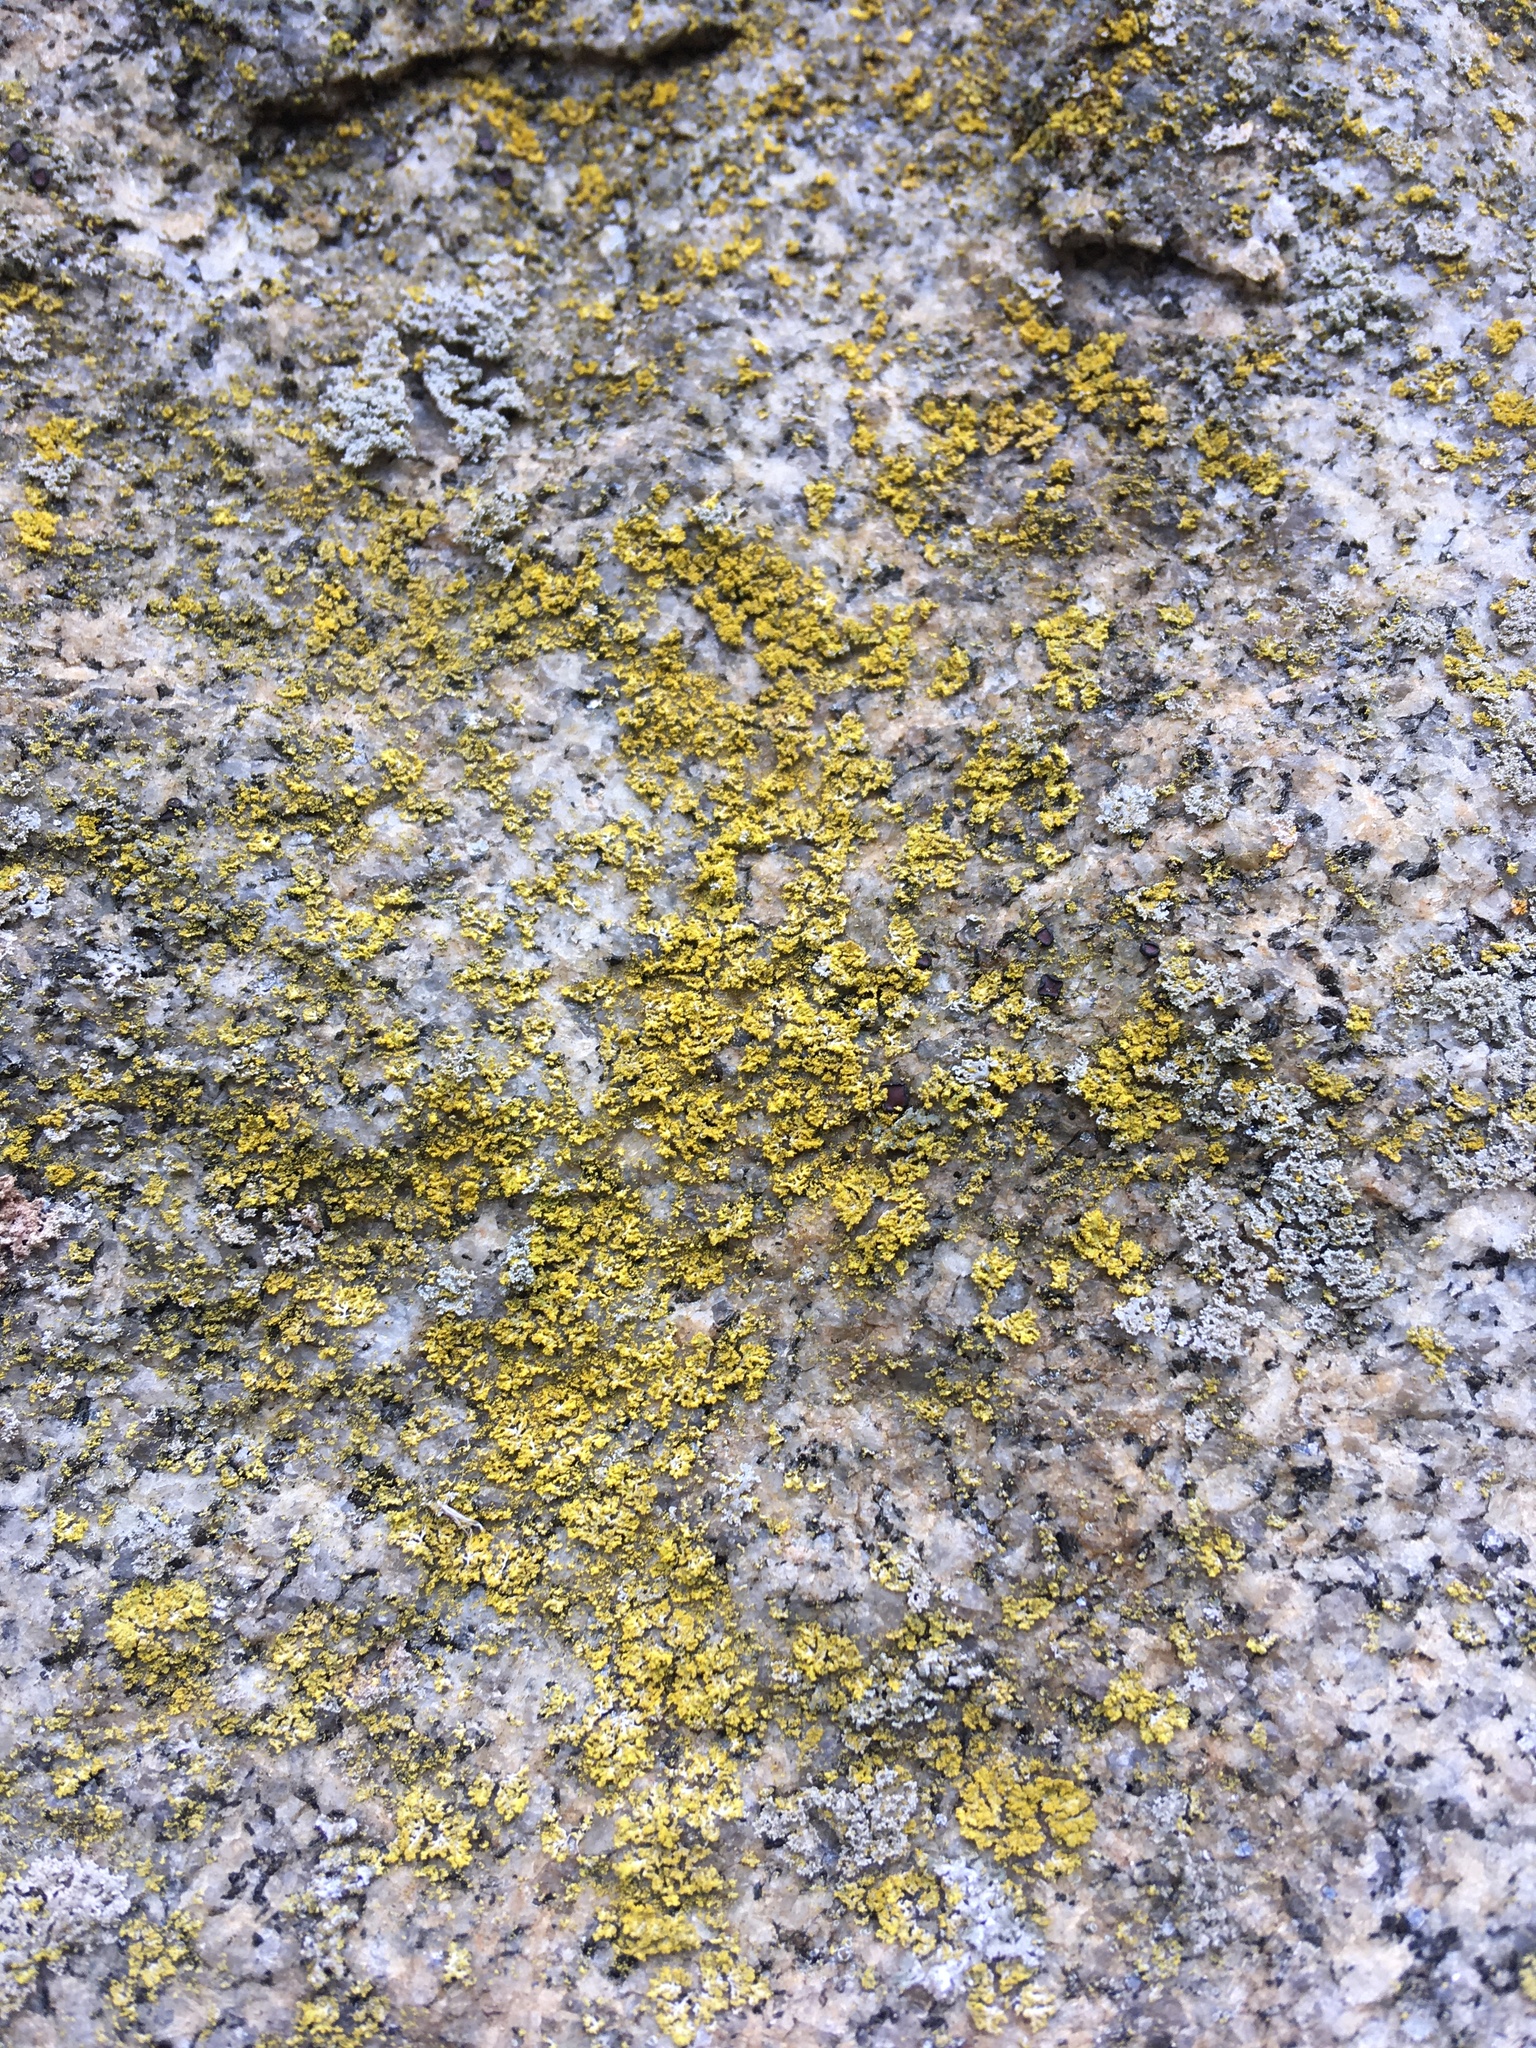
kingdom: Fungi
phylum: Ascomycota
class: Candelariomycetes
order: Candelariales
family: Candelariaceae
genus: Candelaria
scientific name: Candelaria concolor
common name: Candleflame lichen
